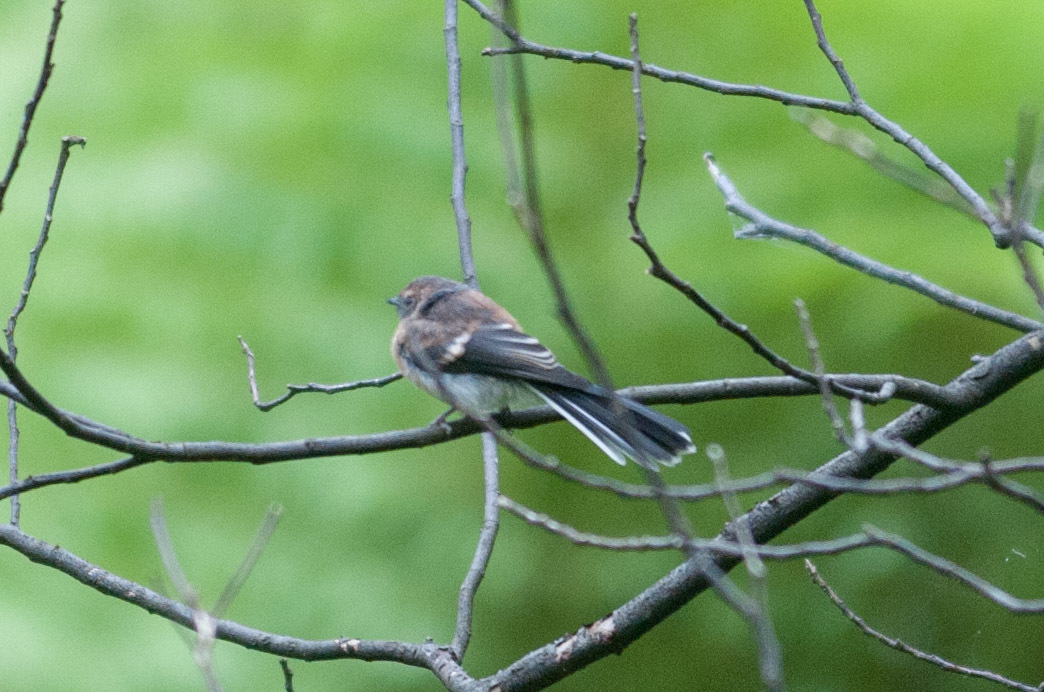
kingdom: Animalia
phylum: Chordata
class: Aves
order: Passeriformes
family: Rhipiduridae
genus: Rhipidura
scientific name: Rhipidura albiscapa
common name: Grey fantail
